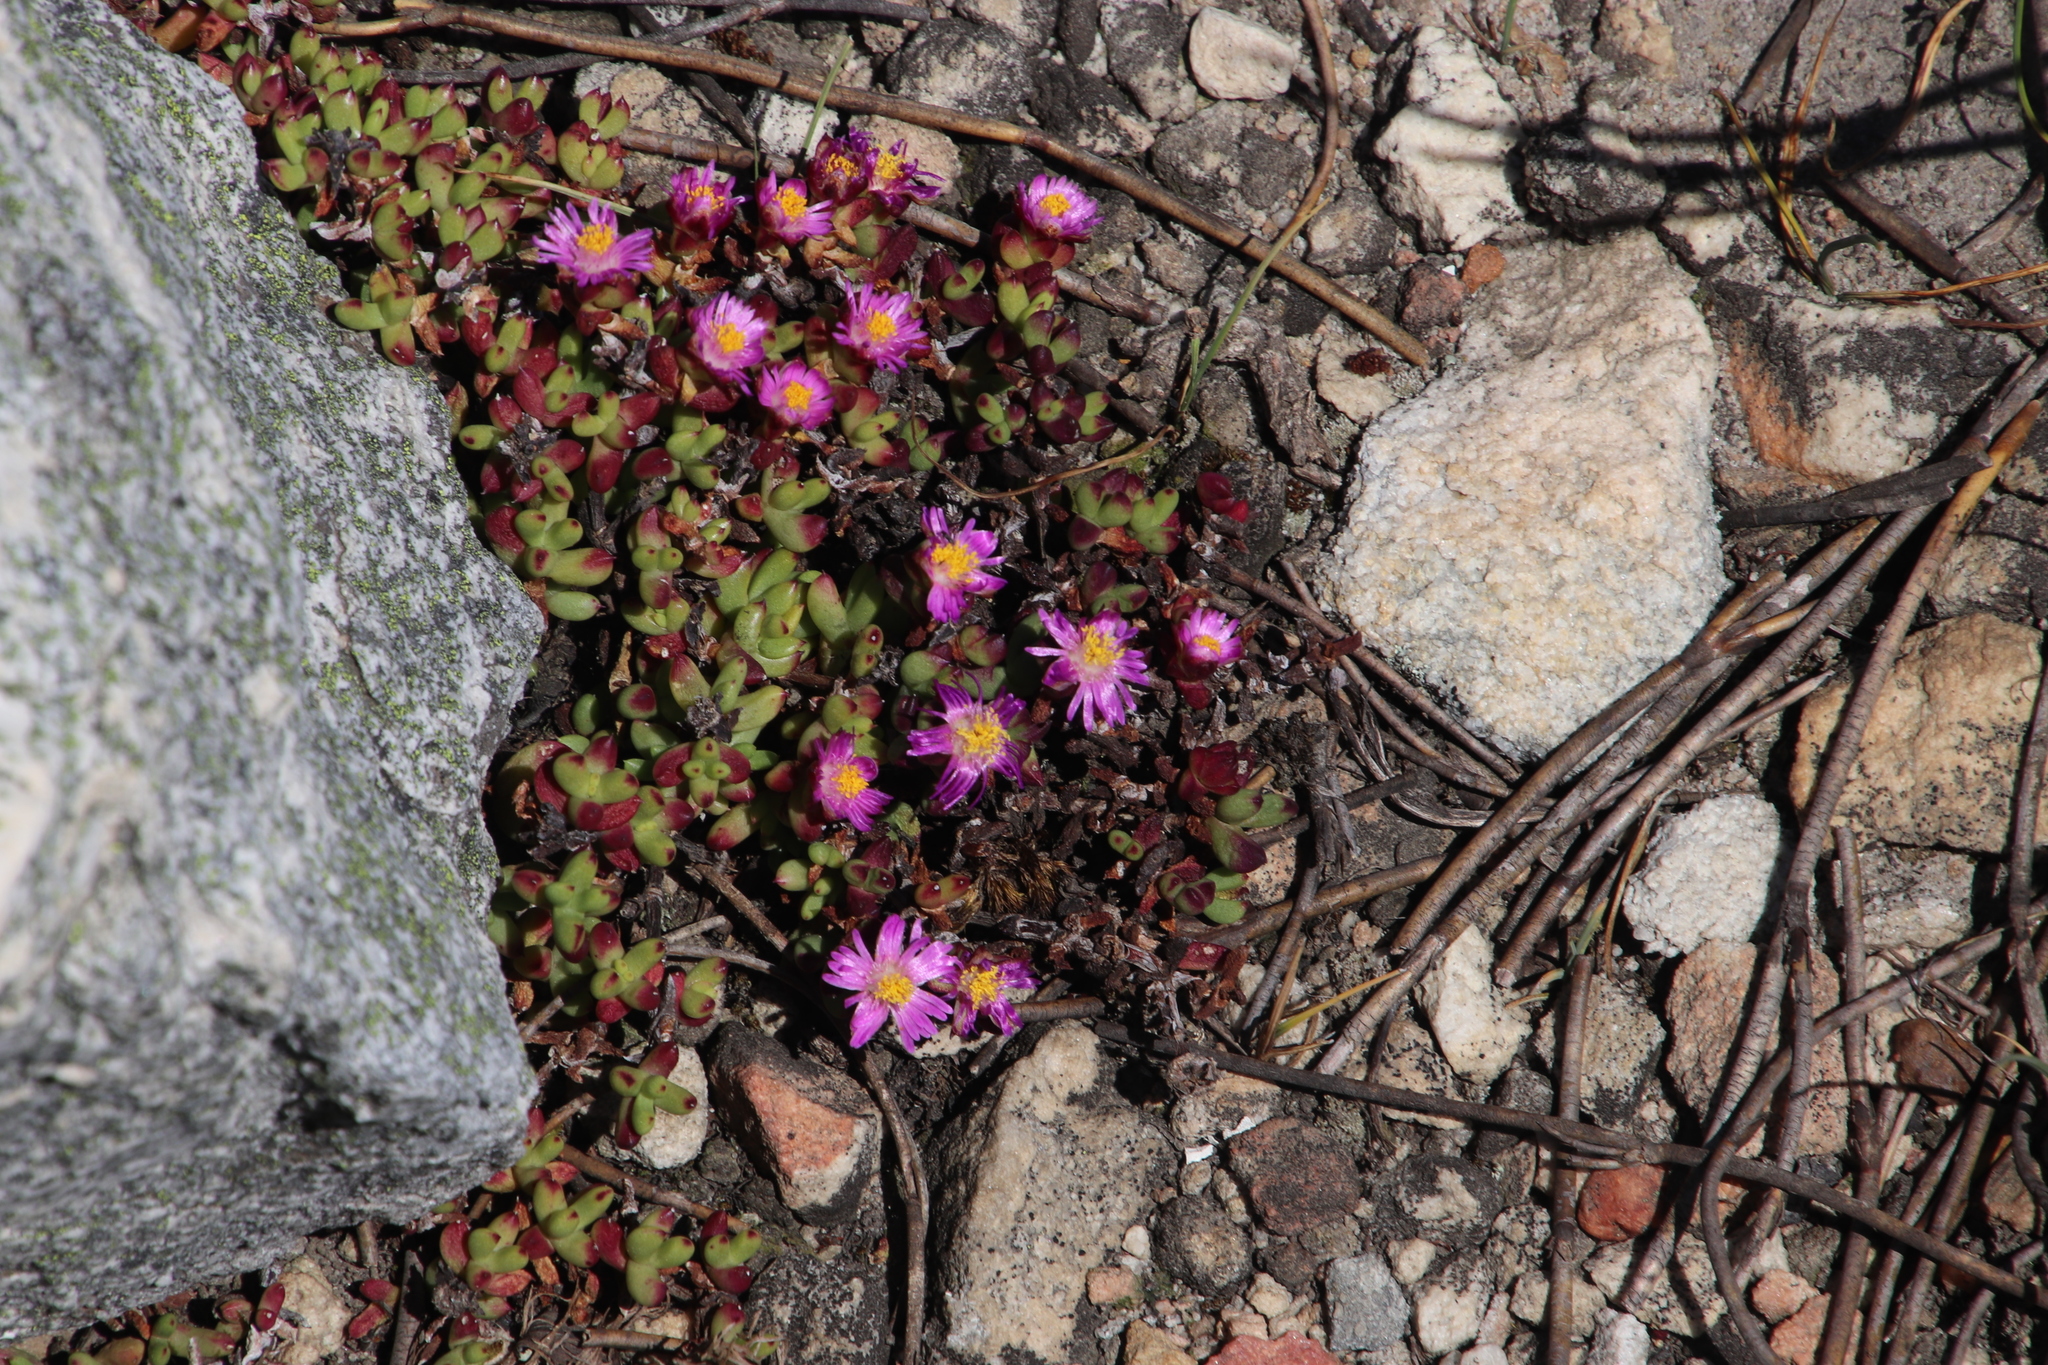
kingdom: Plantae
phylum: Tracheophyta
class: Magnoliopsida
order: Caryophyllales
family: Aizoaceae
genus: Esterhuysenia
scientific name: Esterhuysenia drepanophylla
